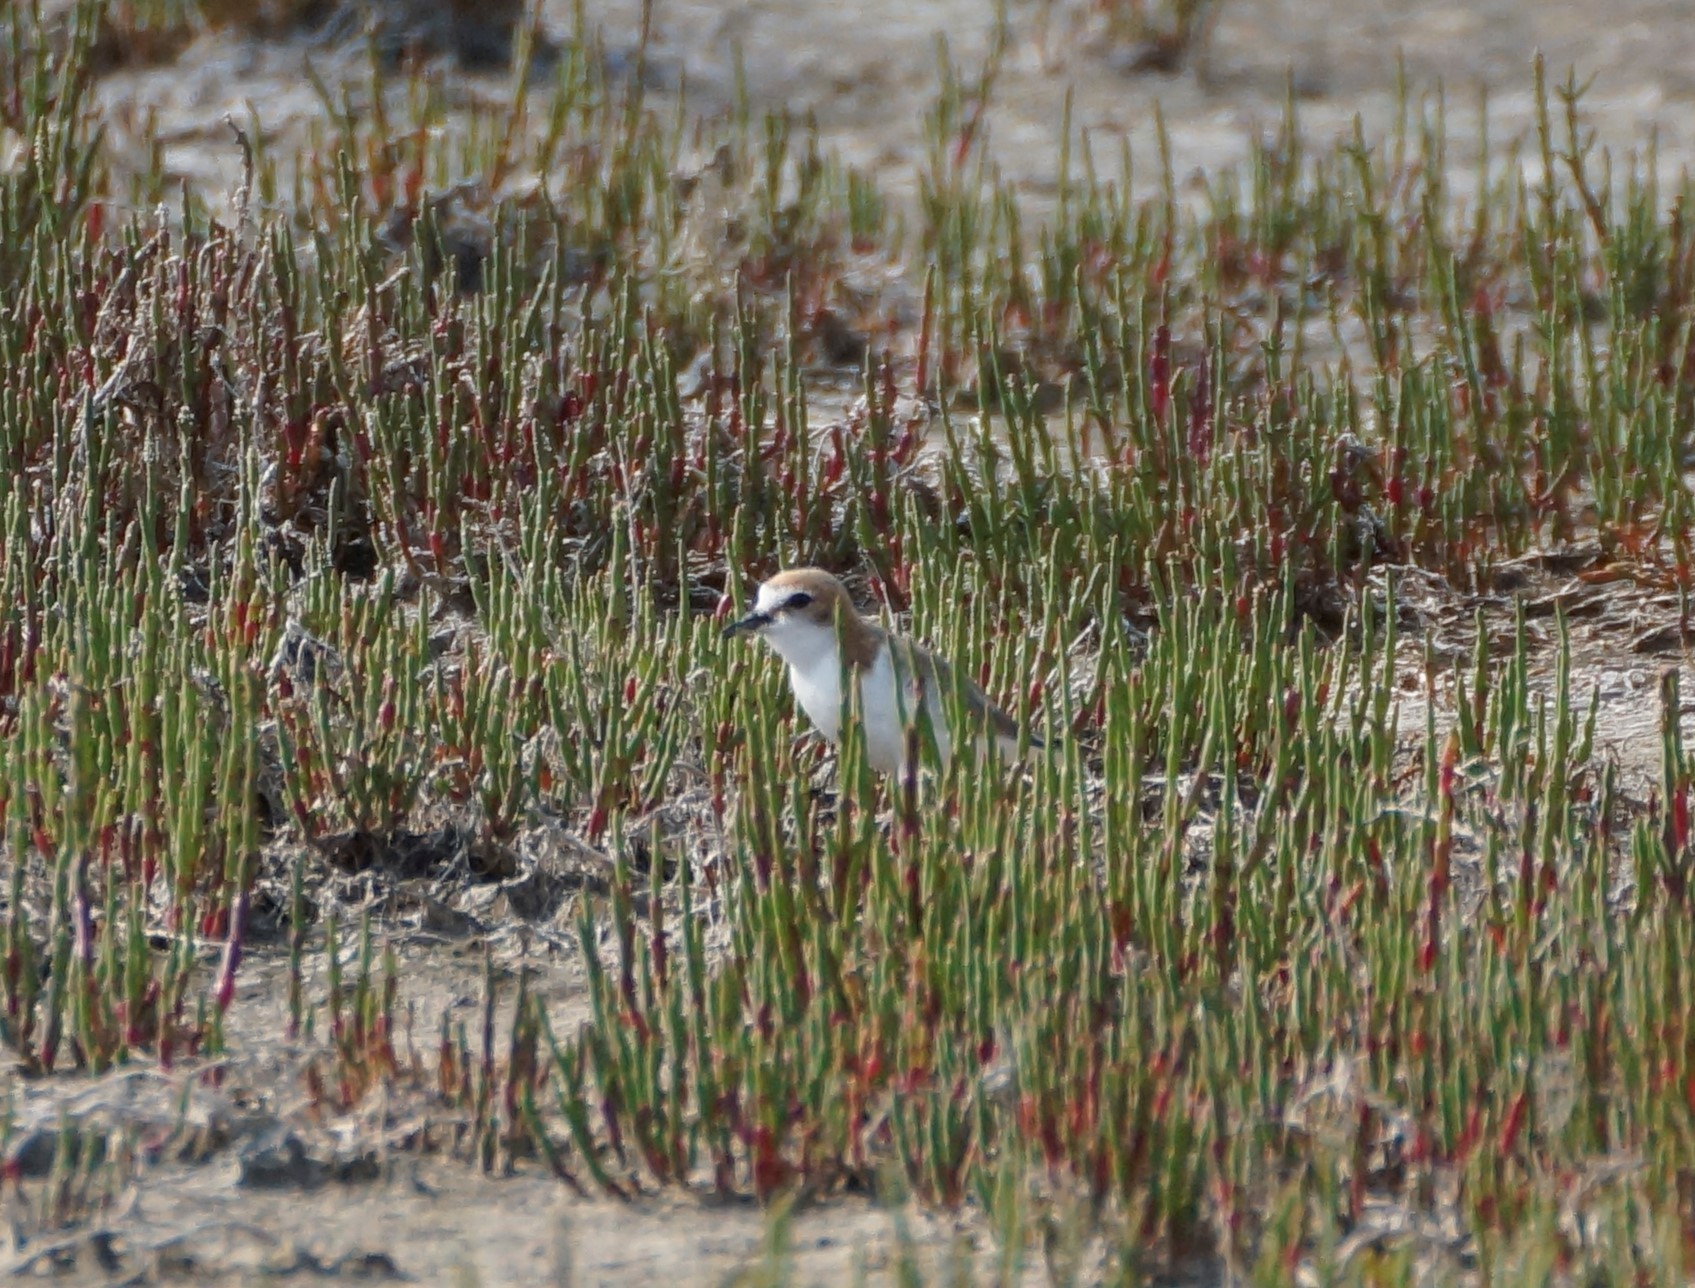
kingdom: Animalia
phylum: Chordata
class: Aves
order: Charadriiformes
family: Charadriidae
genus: Anarhynchus
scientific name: Anarhynchus
